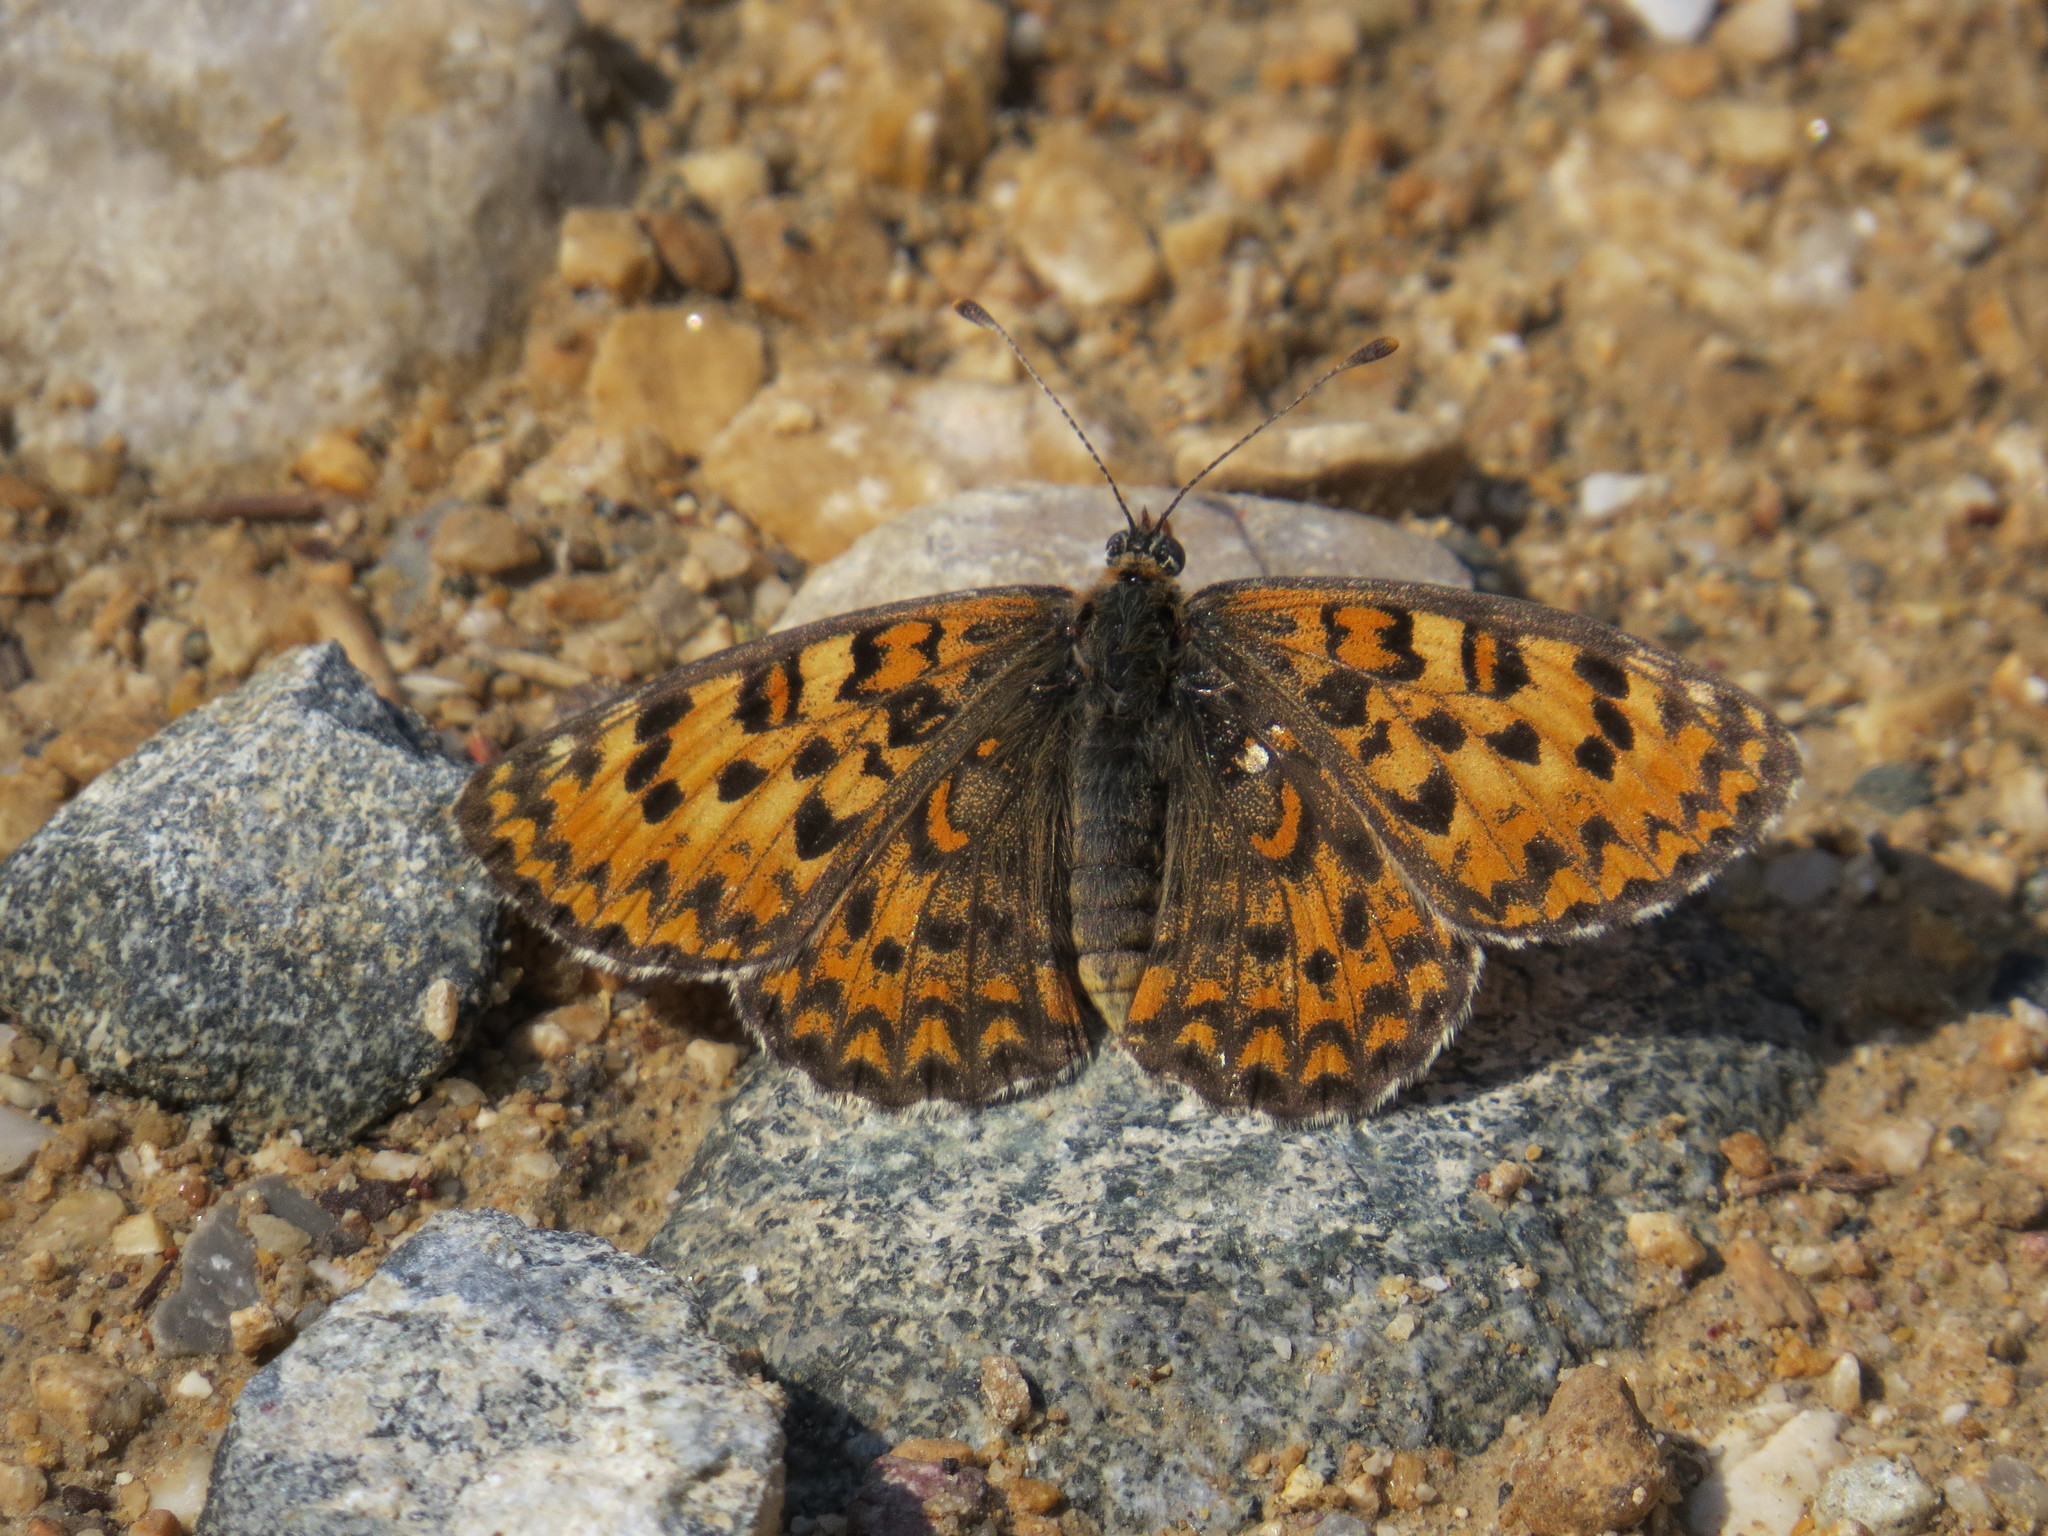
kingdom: Animalia
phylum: Arthropoda
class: Insecta
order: Lepidoptera
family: Nymphalidae
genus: Melitaea
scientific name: Melitaea trivia
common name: Lesser spotted fritillary
